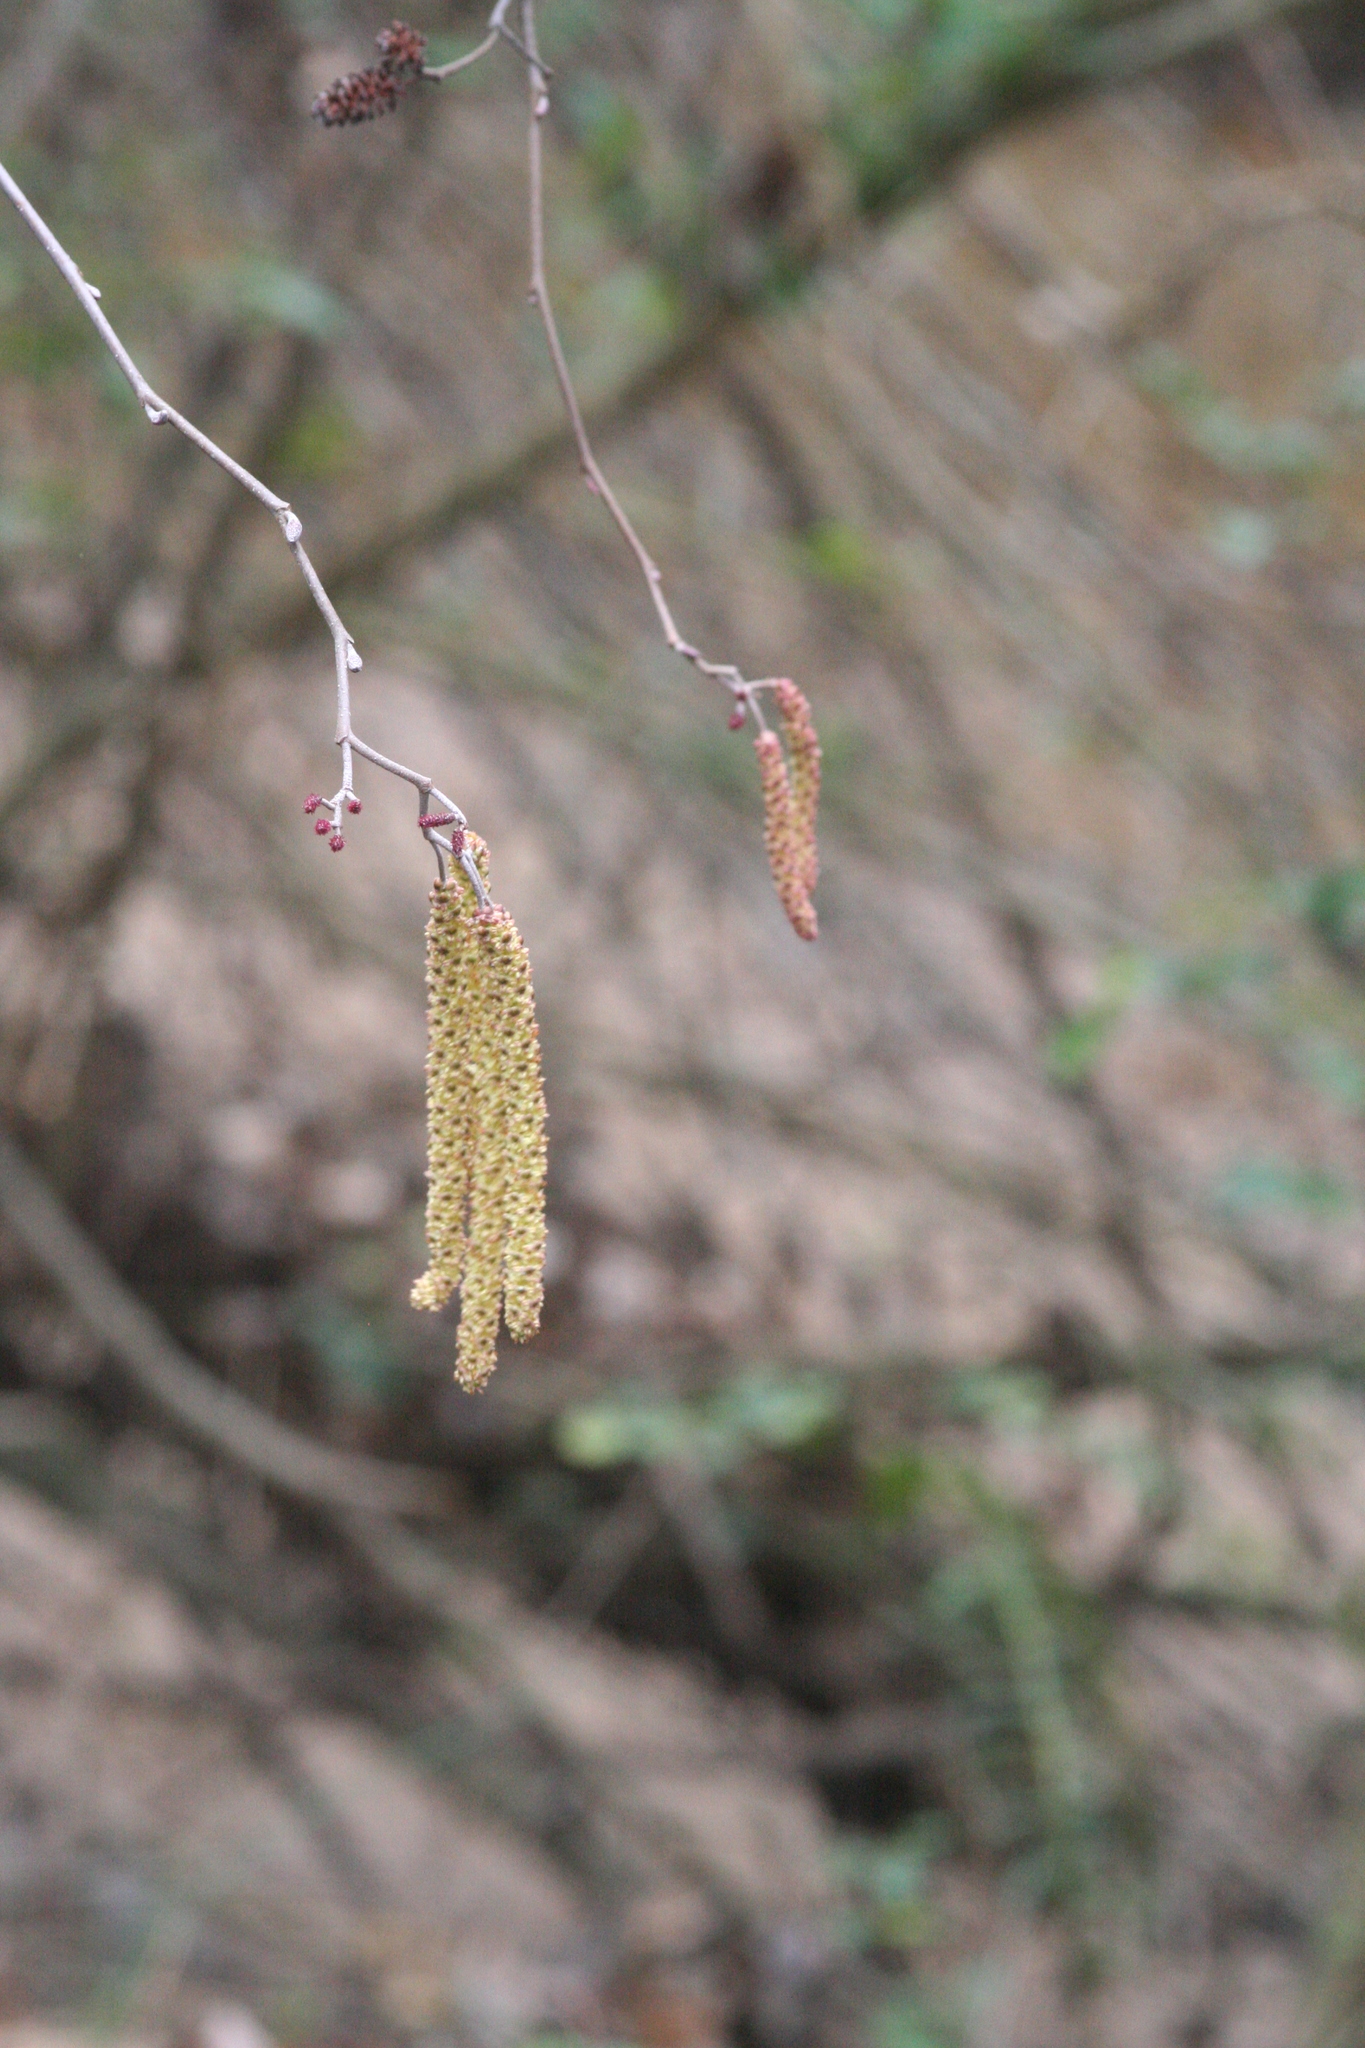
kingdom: Plantae
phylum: Tracheophyta
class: Magnoliopsida
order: Fagales
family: Betulaceae
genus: Alnus
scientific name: Alnus serrulata
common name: Hazel alder
